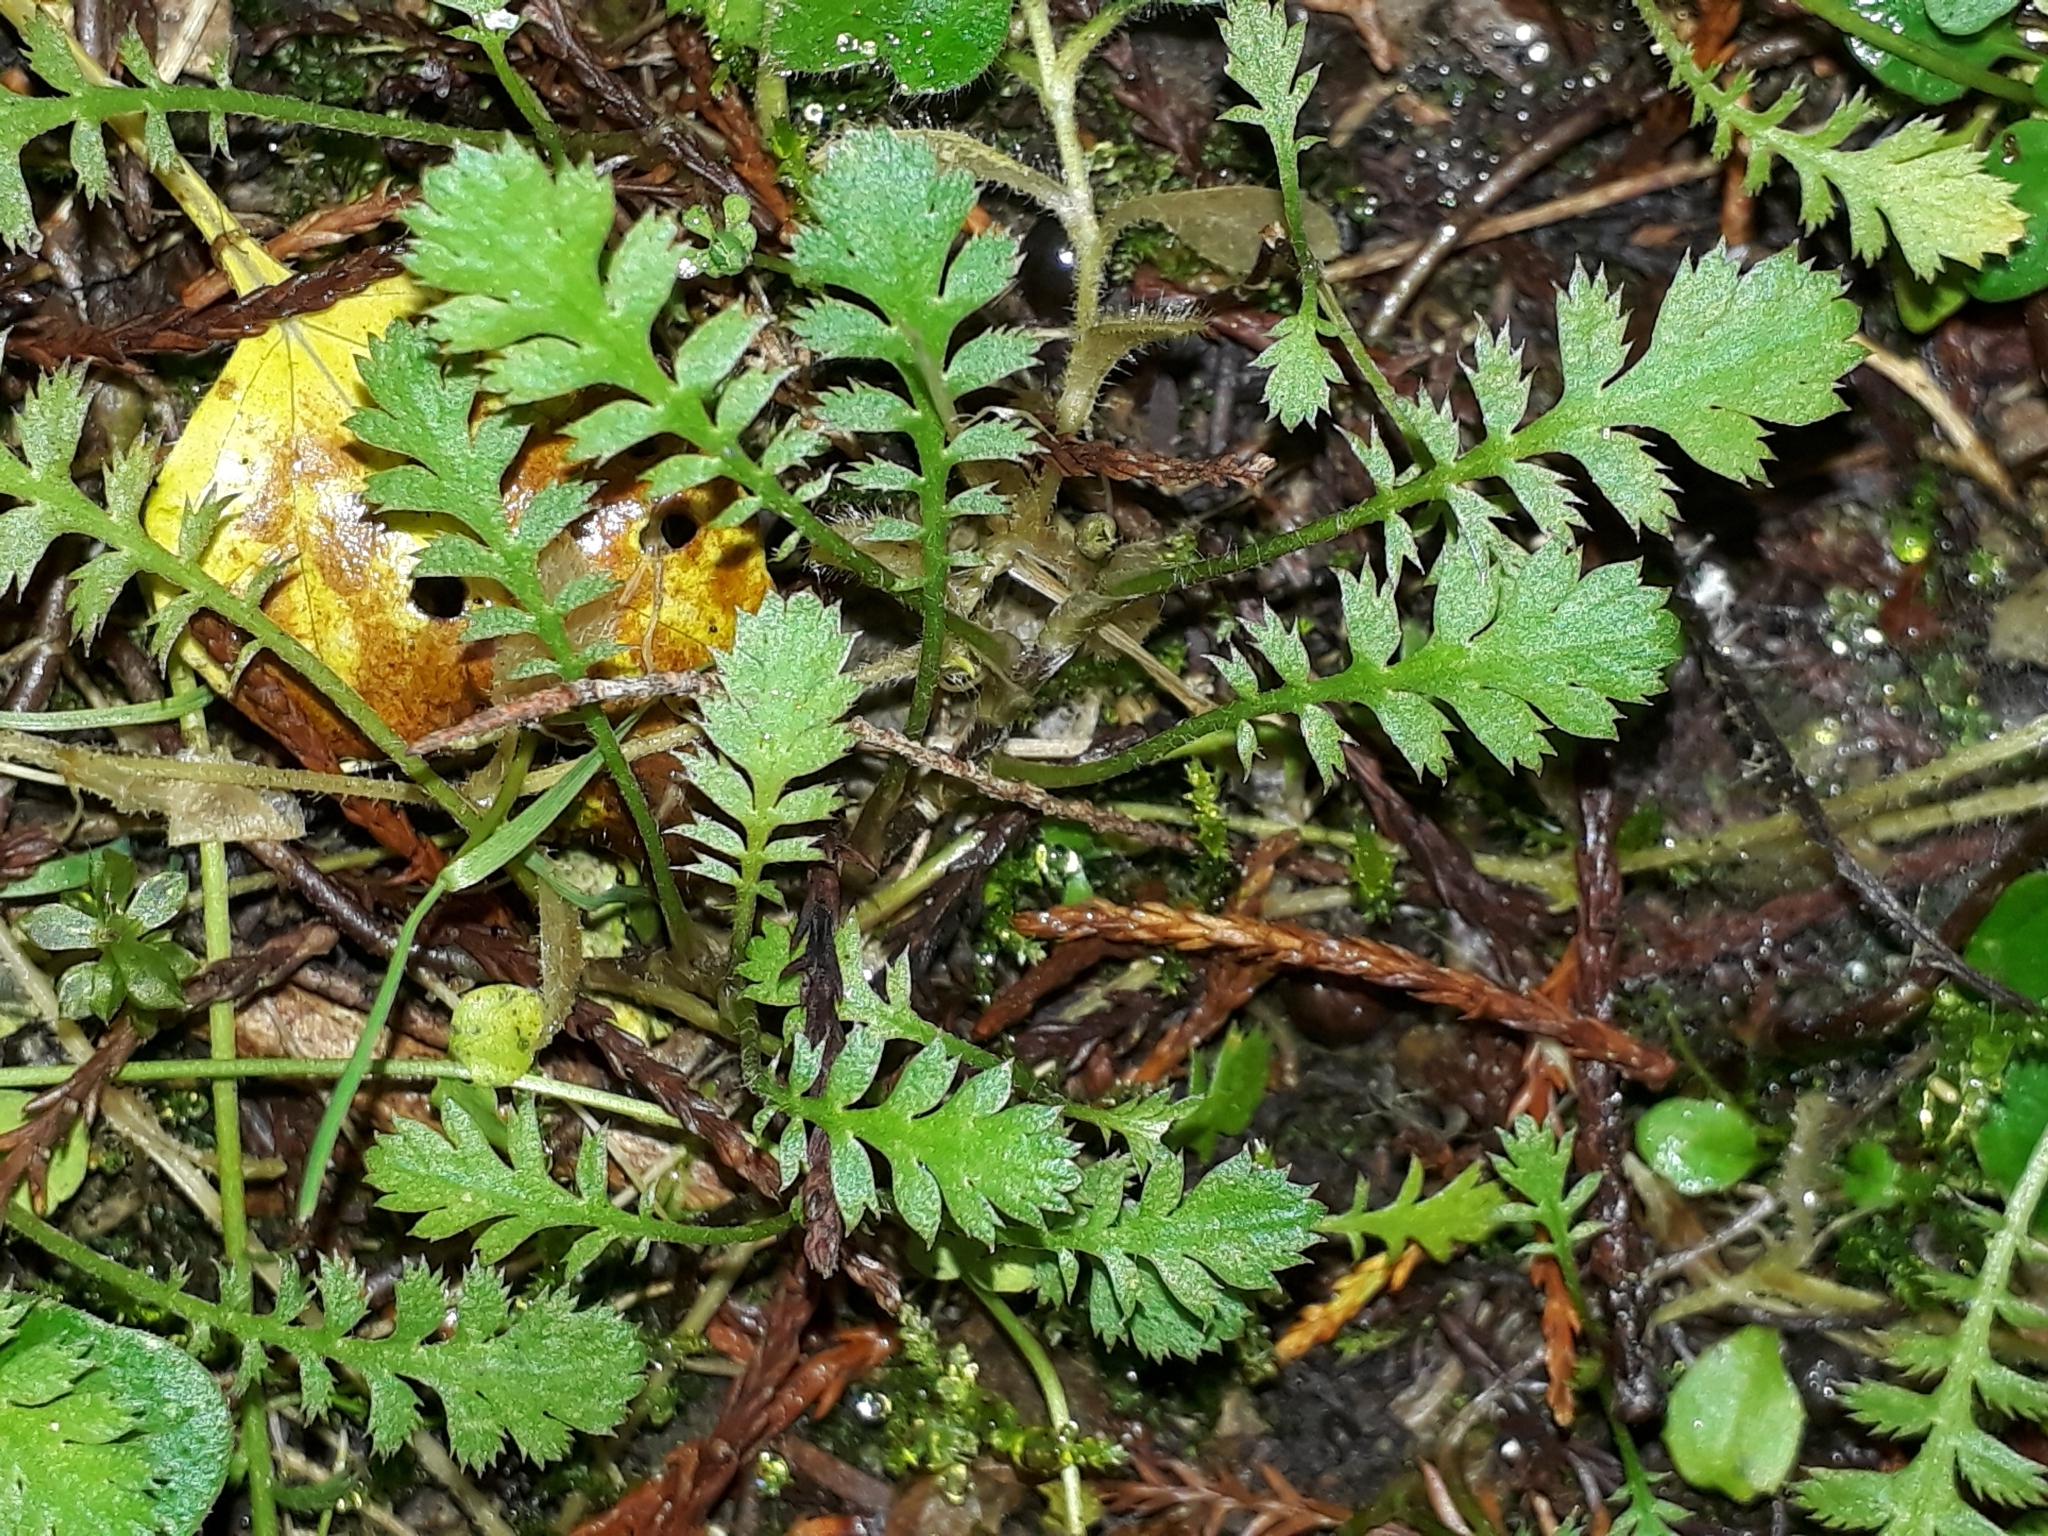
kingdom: Plantae
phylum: Tracheophyta
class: Magnoliopsida
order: Asterales
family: Asteraceae
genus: Leptinella
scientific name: Leptinella squalida
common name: New zealand brass-buttons
